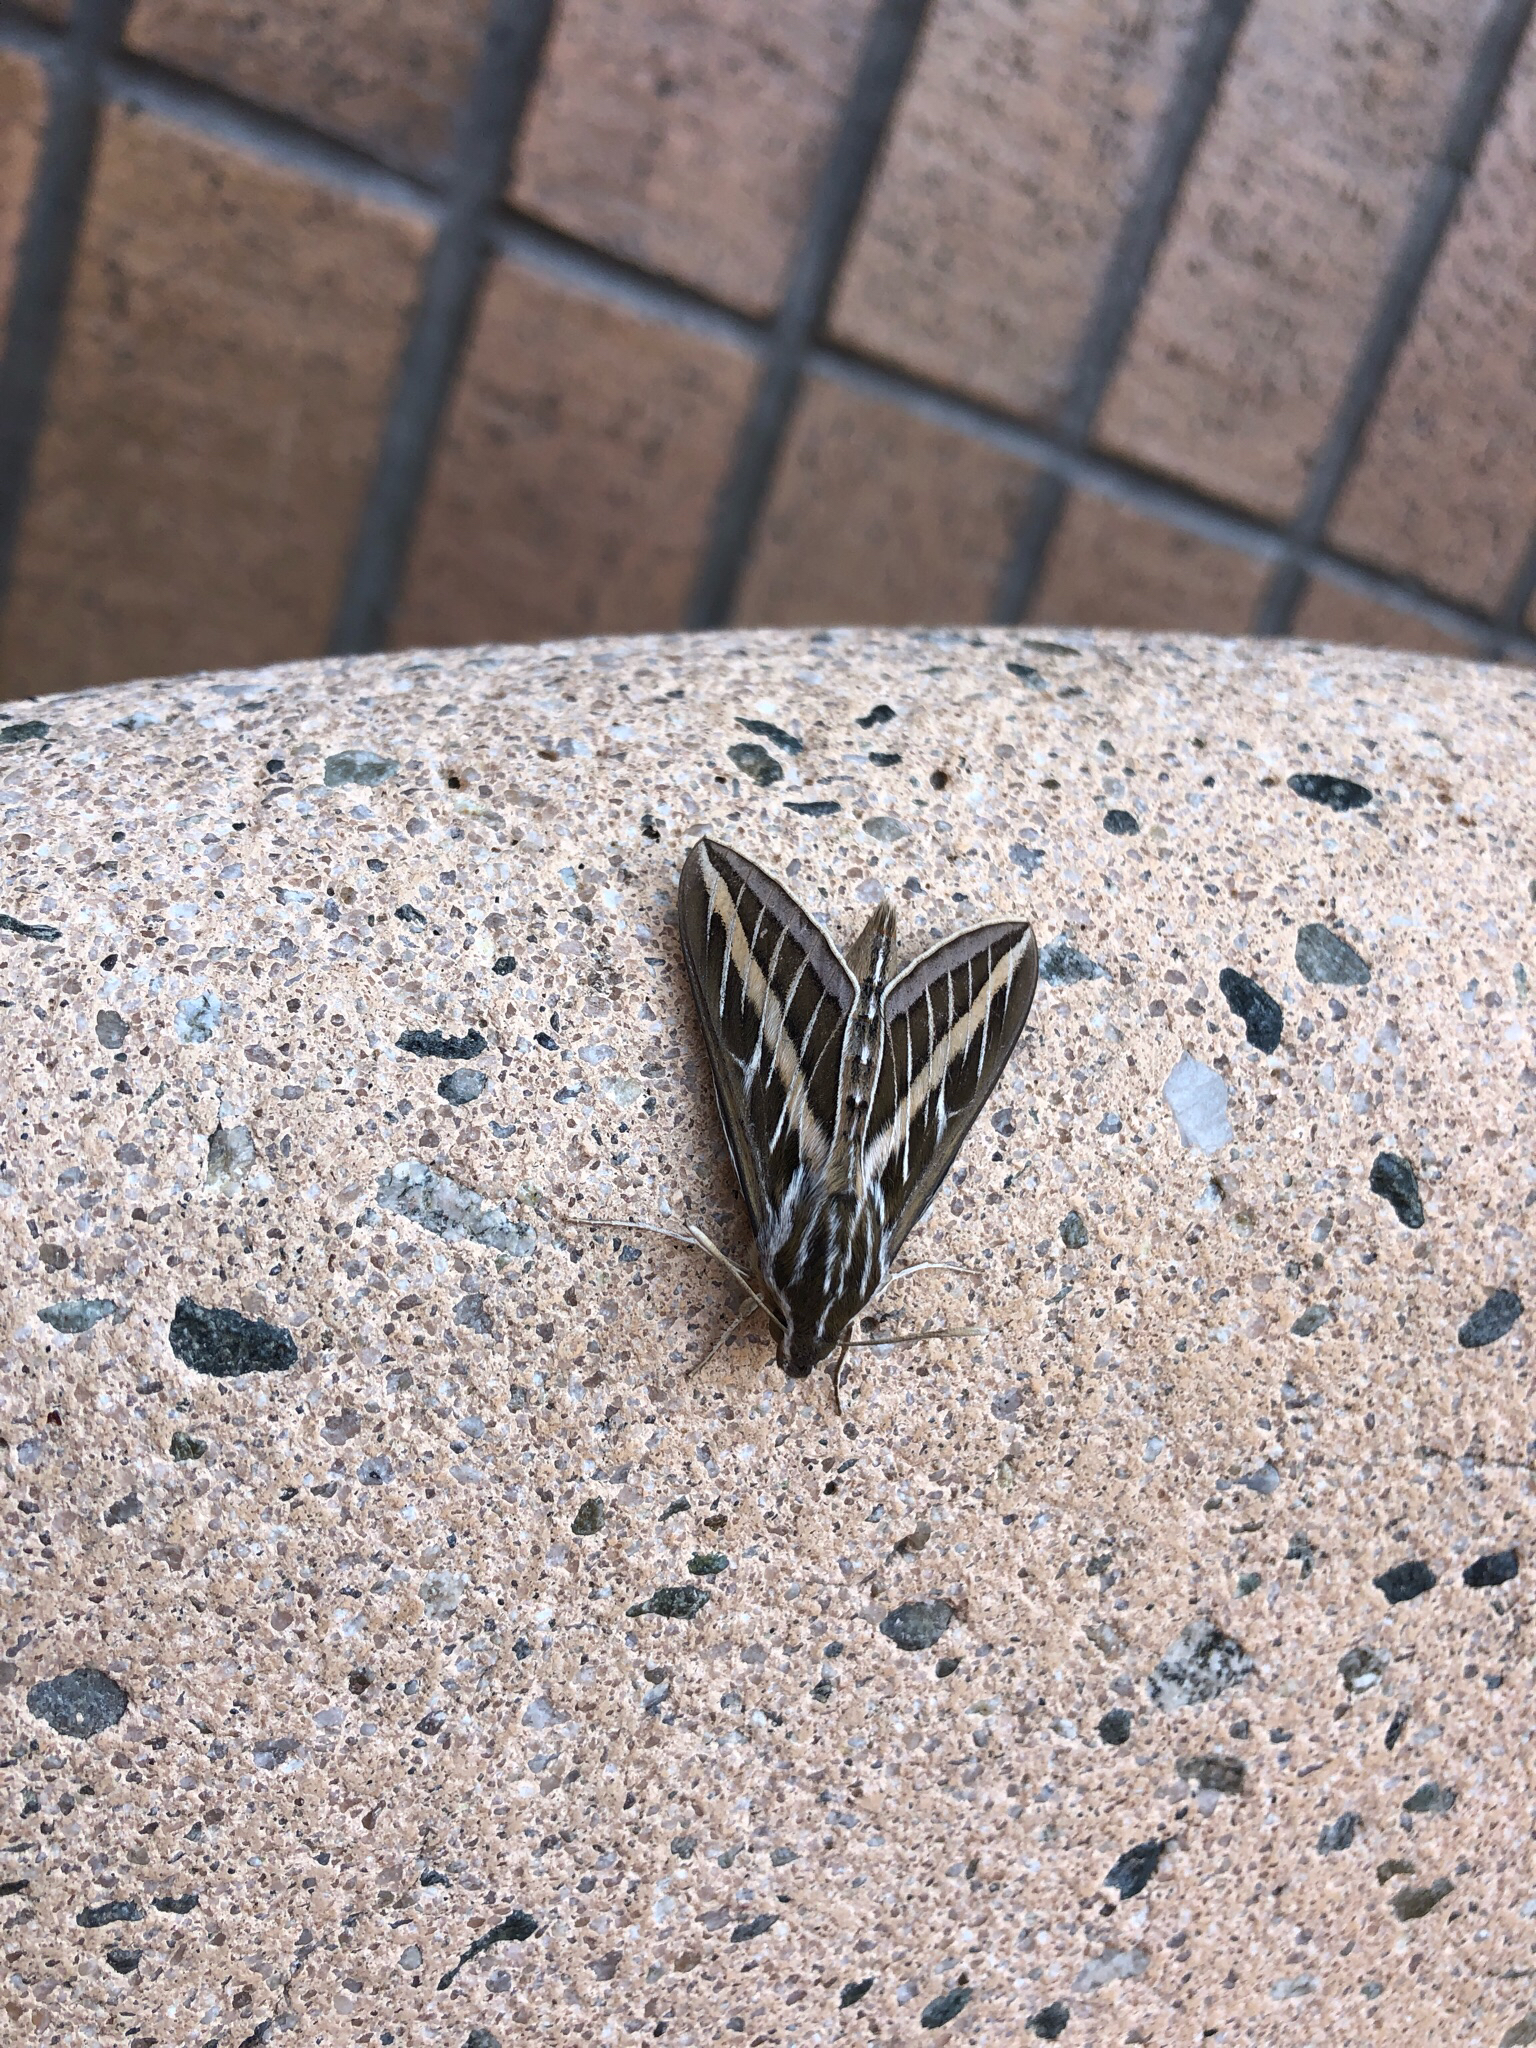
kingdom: Animalia
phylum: Arthropoda
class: Insecta
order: Lepidoptera
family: Sphingidae
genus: Hyles
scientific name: Hyles lineata
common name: White-lined sphinx
